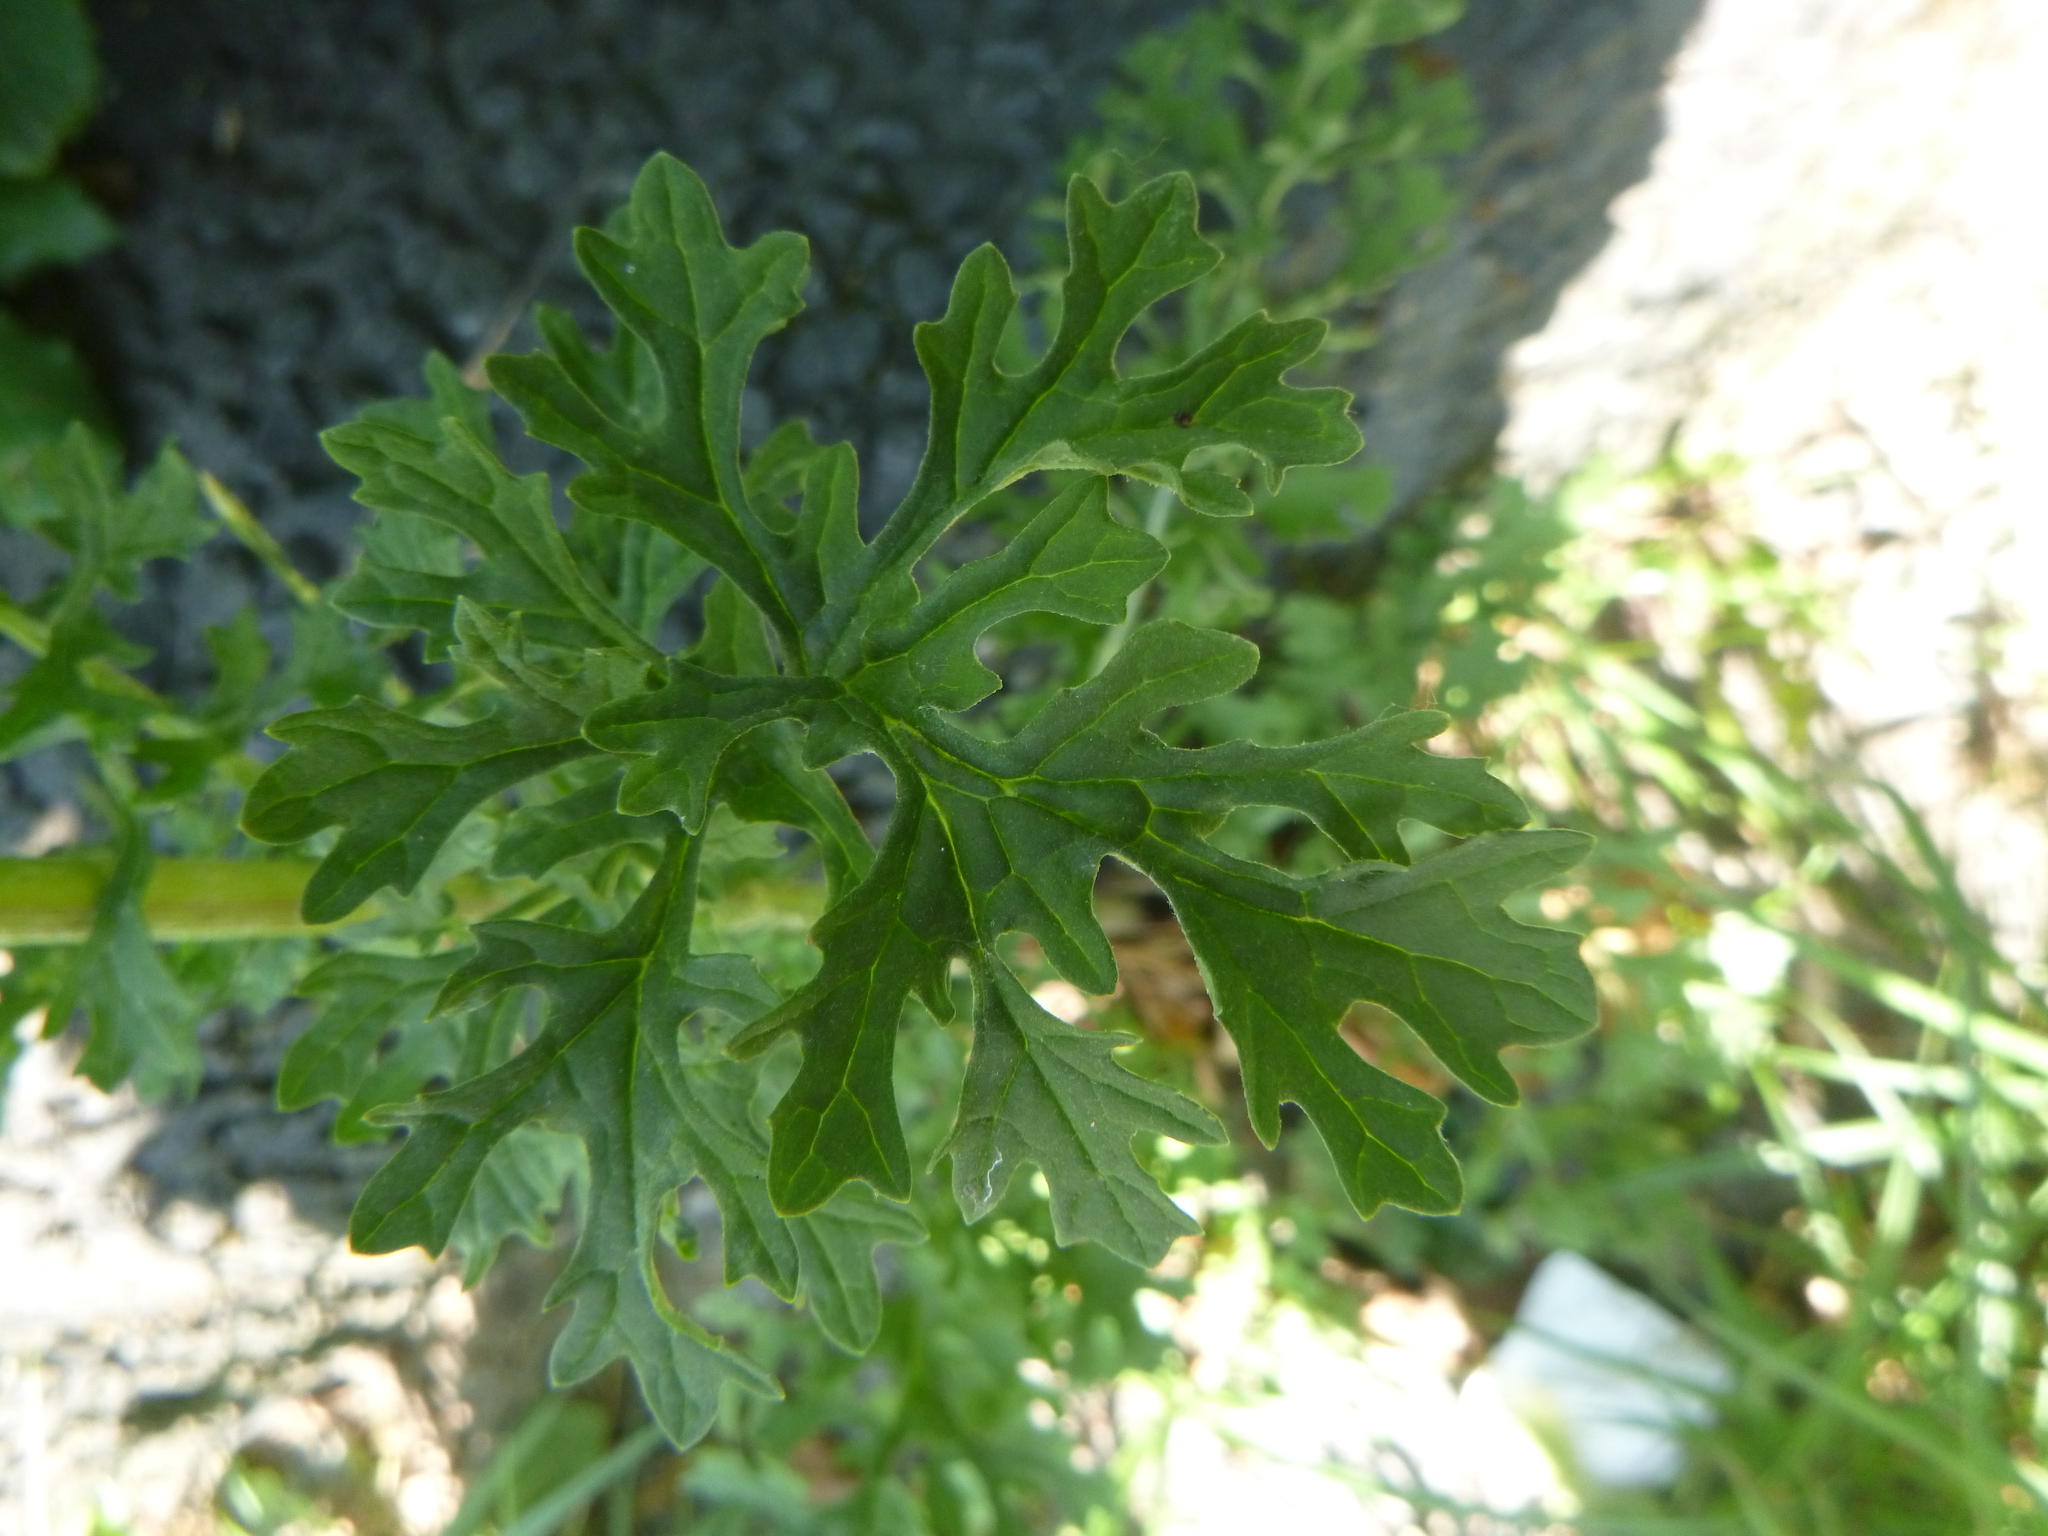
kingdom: Plantae
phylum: Tracheophyta
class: Magnoliopsida
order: Asterales
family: Asteraceae
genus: Jacobaea
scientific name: Jacobaea vulgaris
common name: Stinking willie
